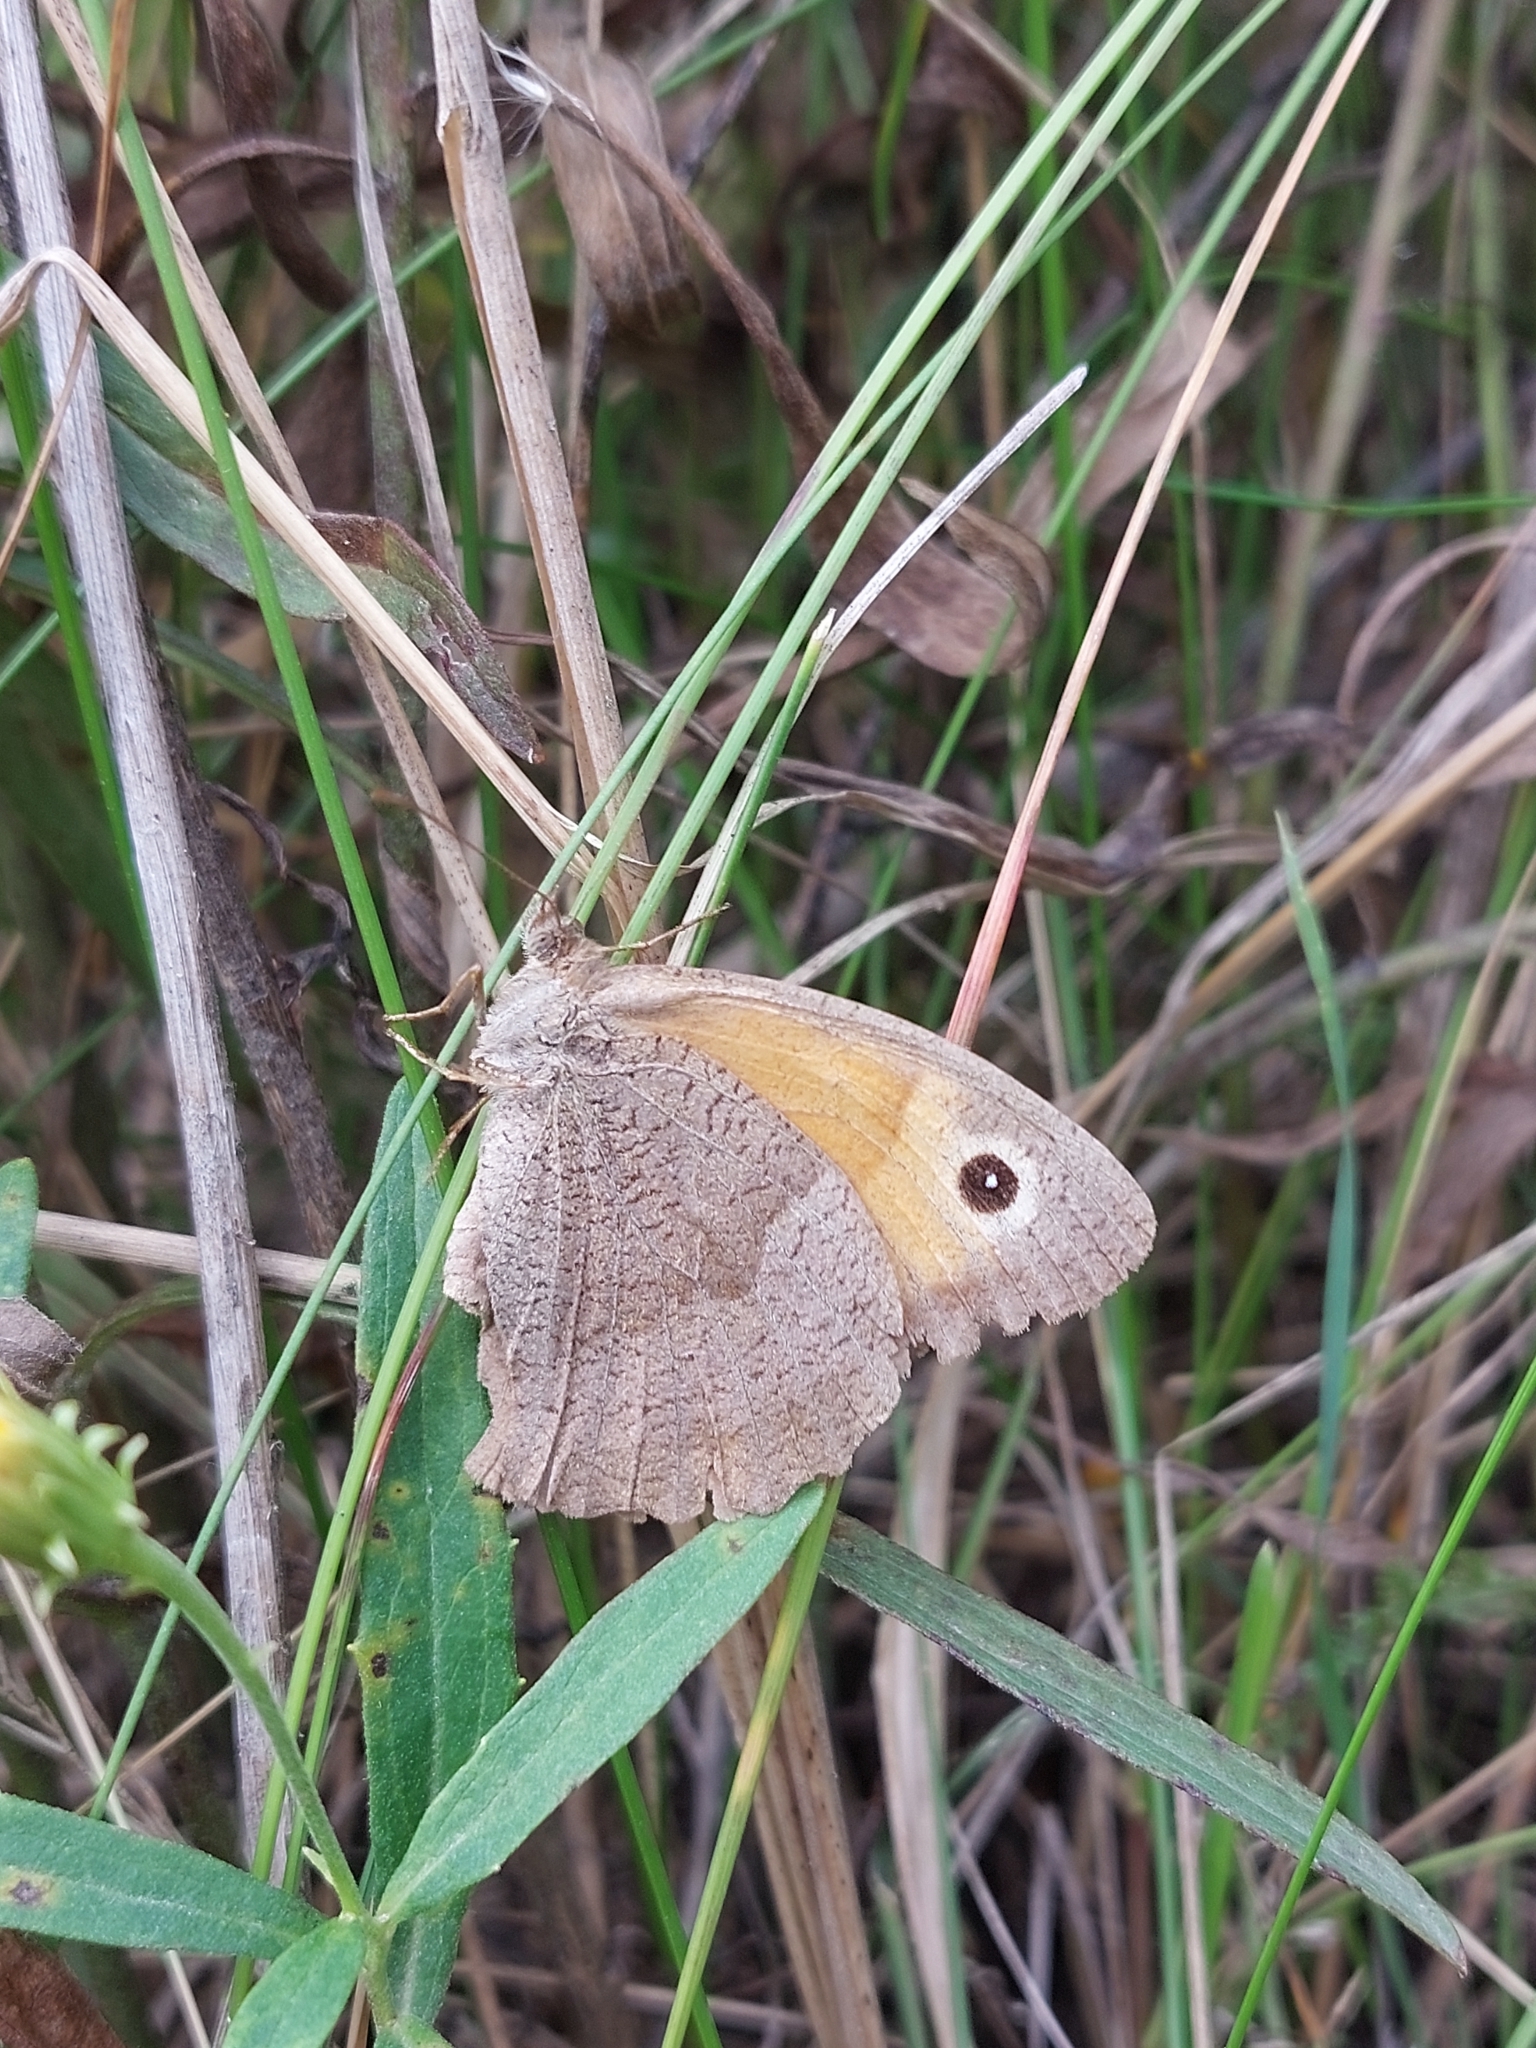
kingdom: Animalia
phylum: Arthropoda
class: Insecta
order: Lepidoptera
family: Nymphalidae
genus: Maniola
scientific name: Maniola jurtina
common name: Meadow brown
